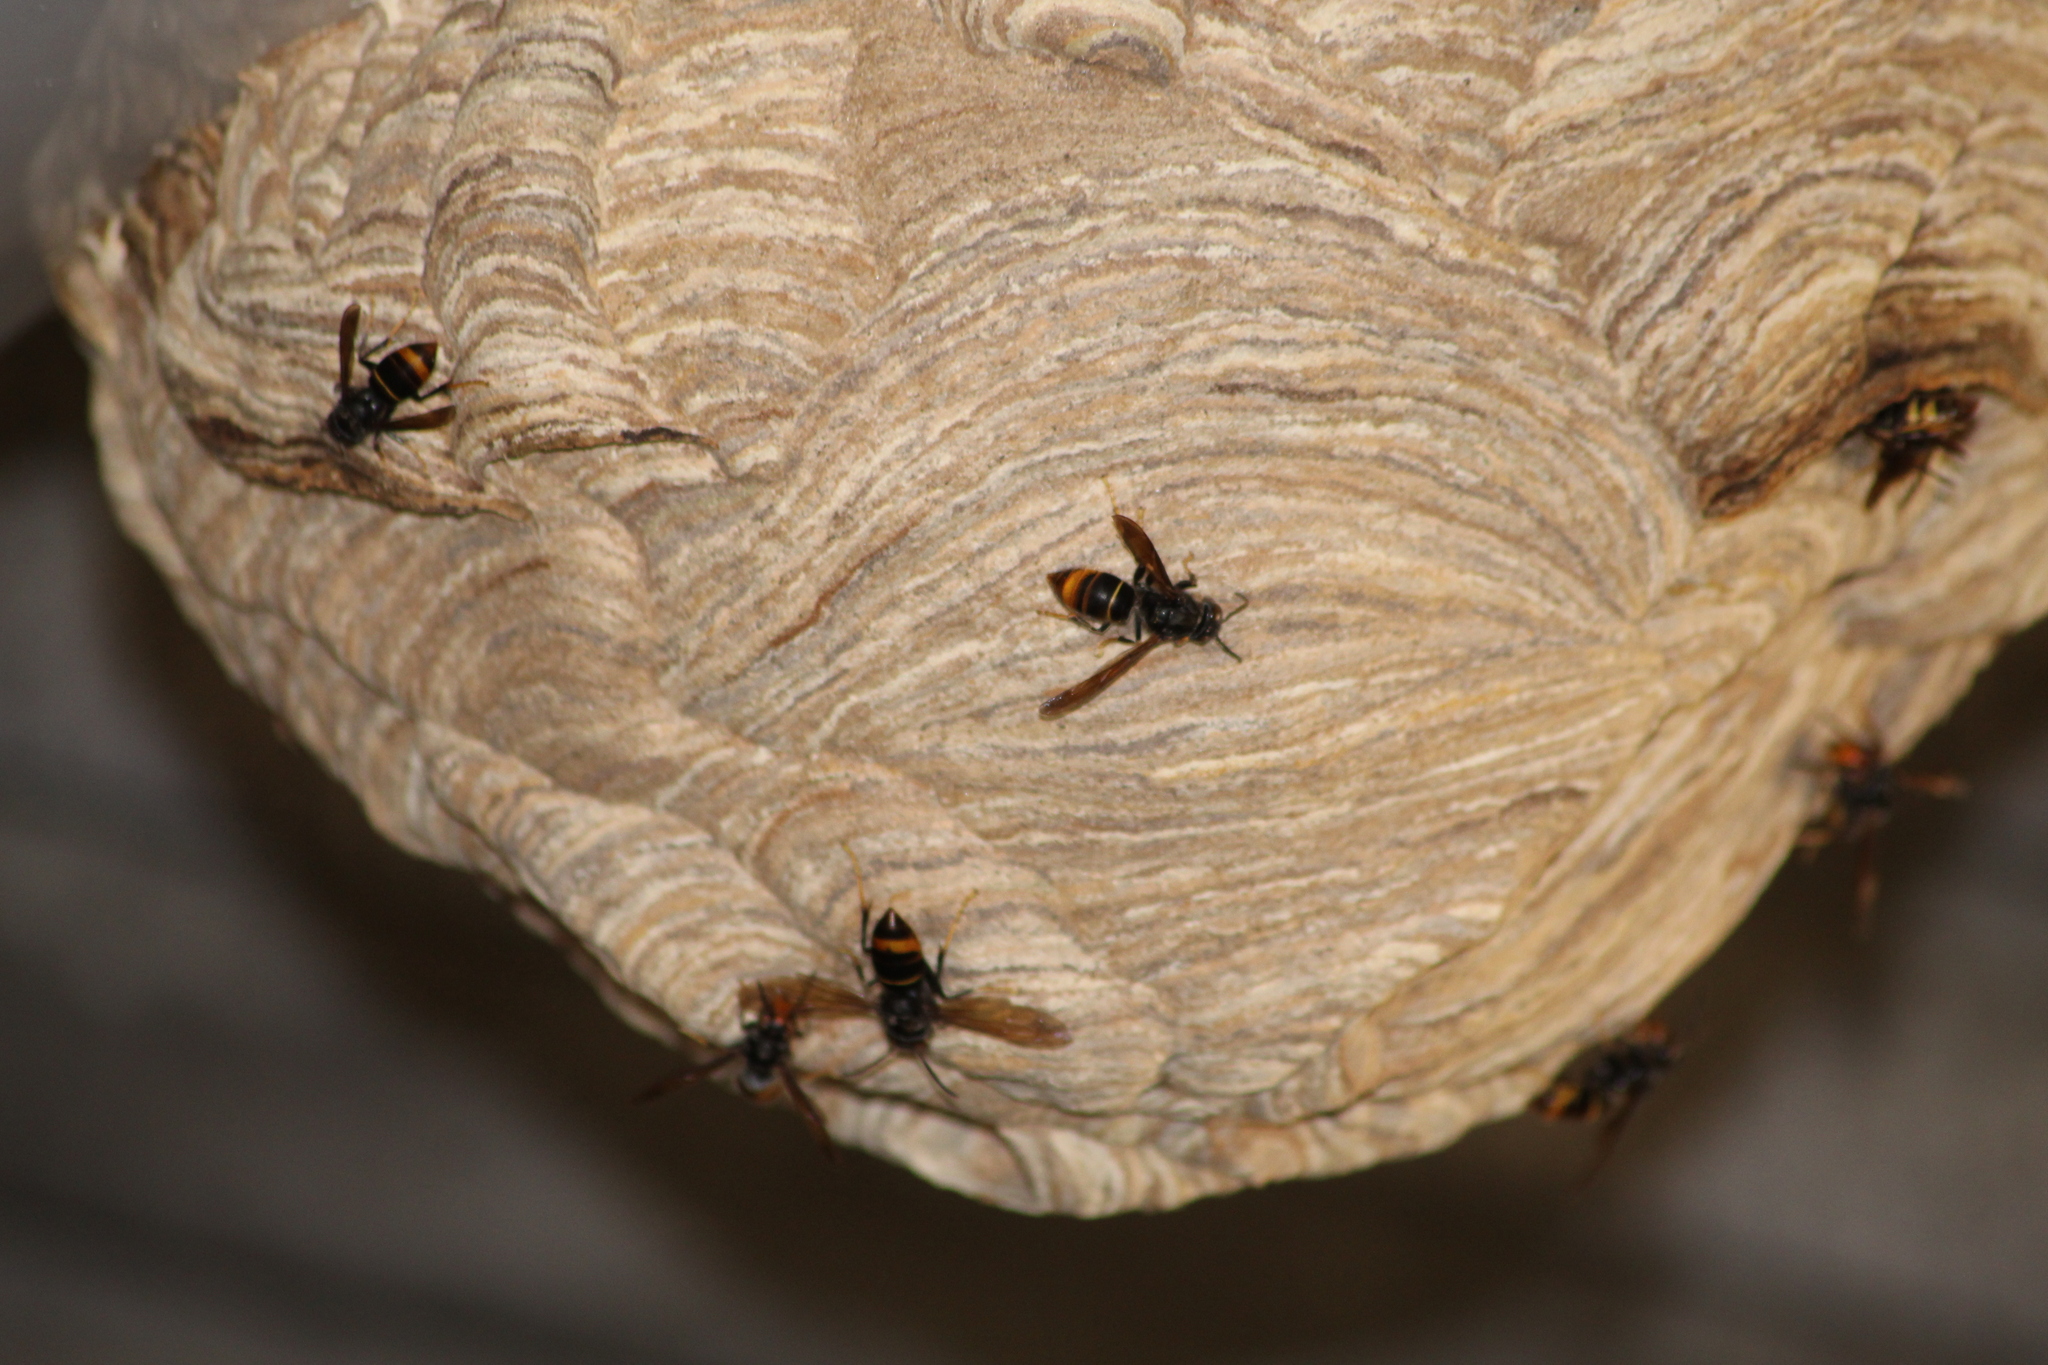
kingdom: Animalia
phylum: Arthropoda
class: Insecta
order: Hymenoptera
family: Vespidae
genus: Vespa
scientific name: Vespa velutina
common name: Asian hornet
